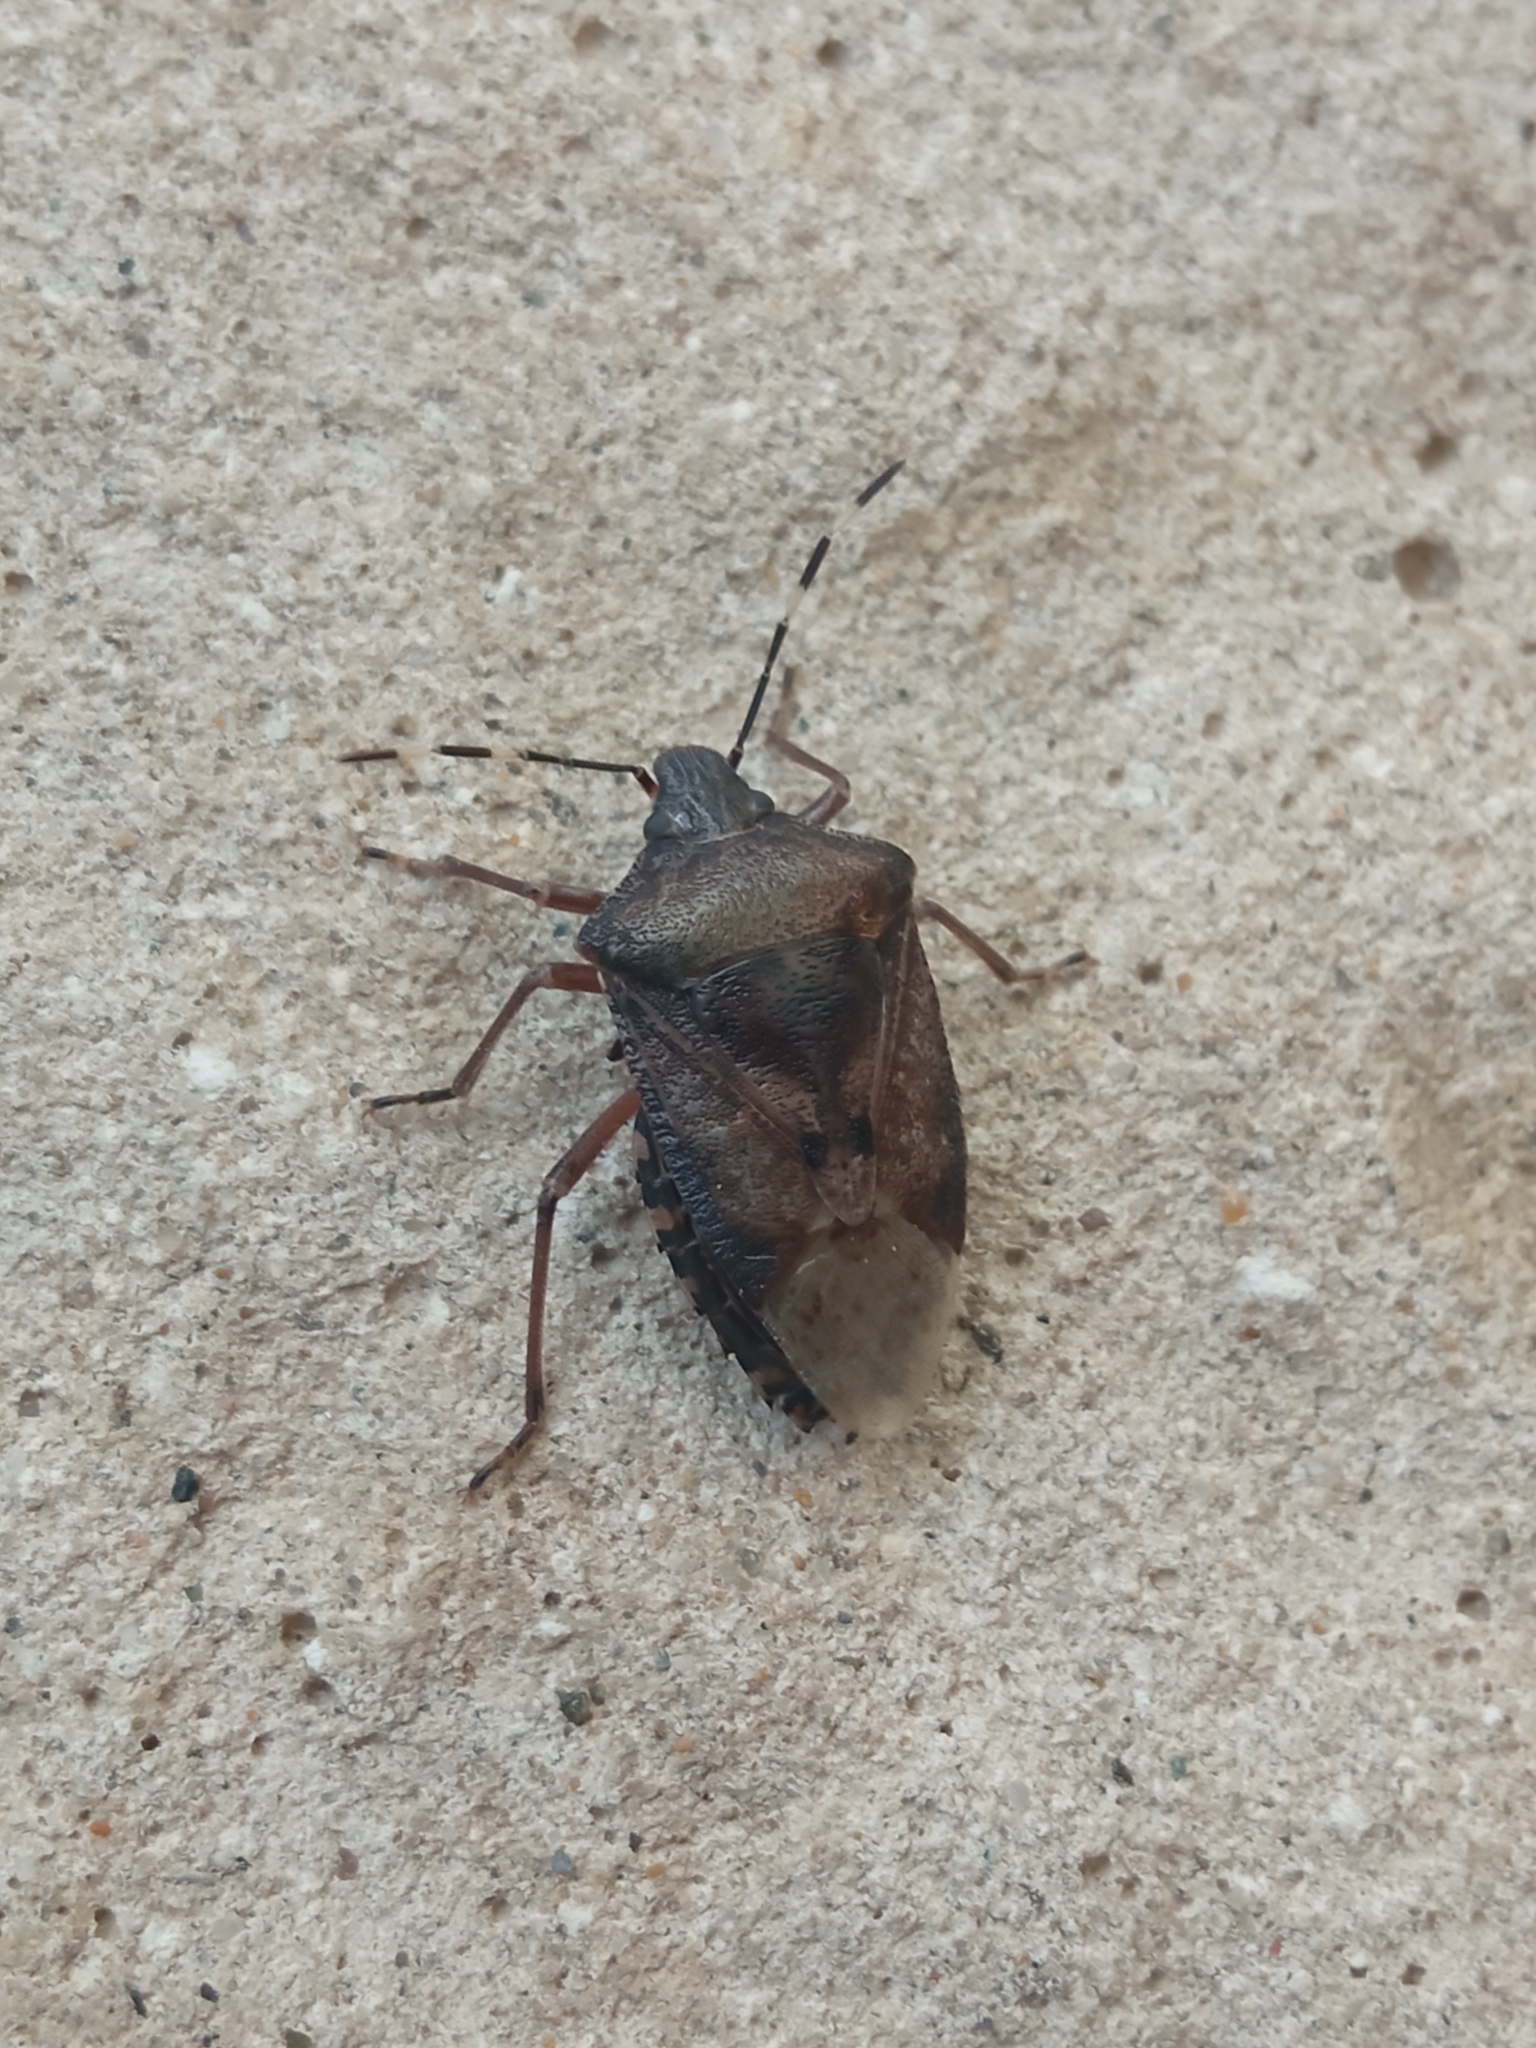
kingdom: Animalia
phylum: Arthropoda
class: Insecta
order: Hemiptera
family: Pentatomidae
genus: Rhaphigaster
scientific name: Rhaphigaster nebulosa
